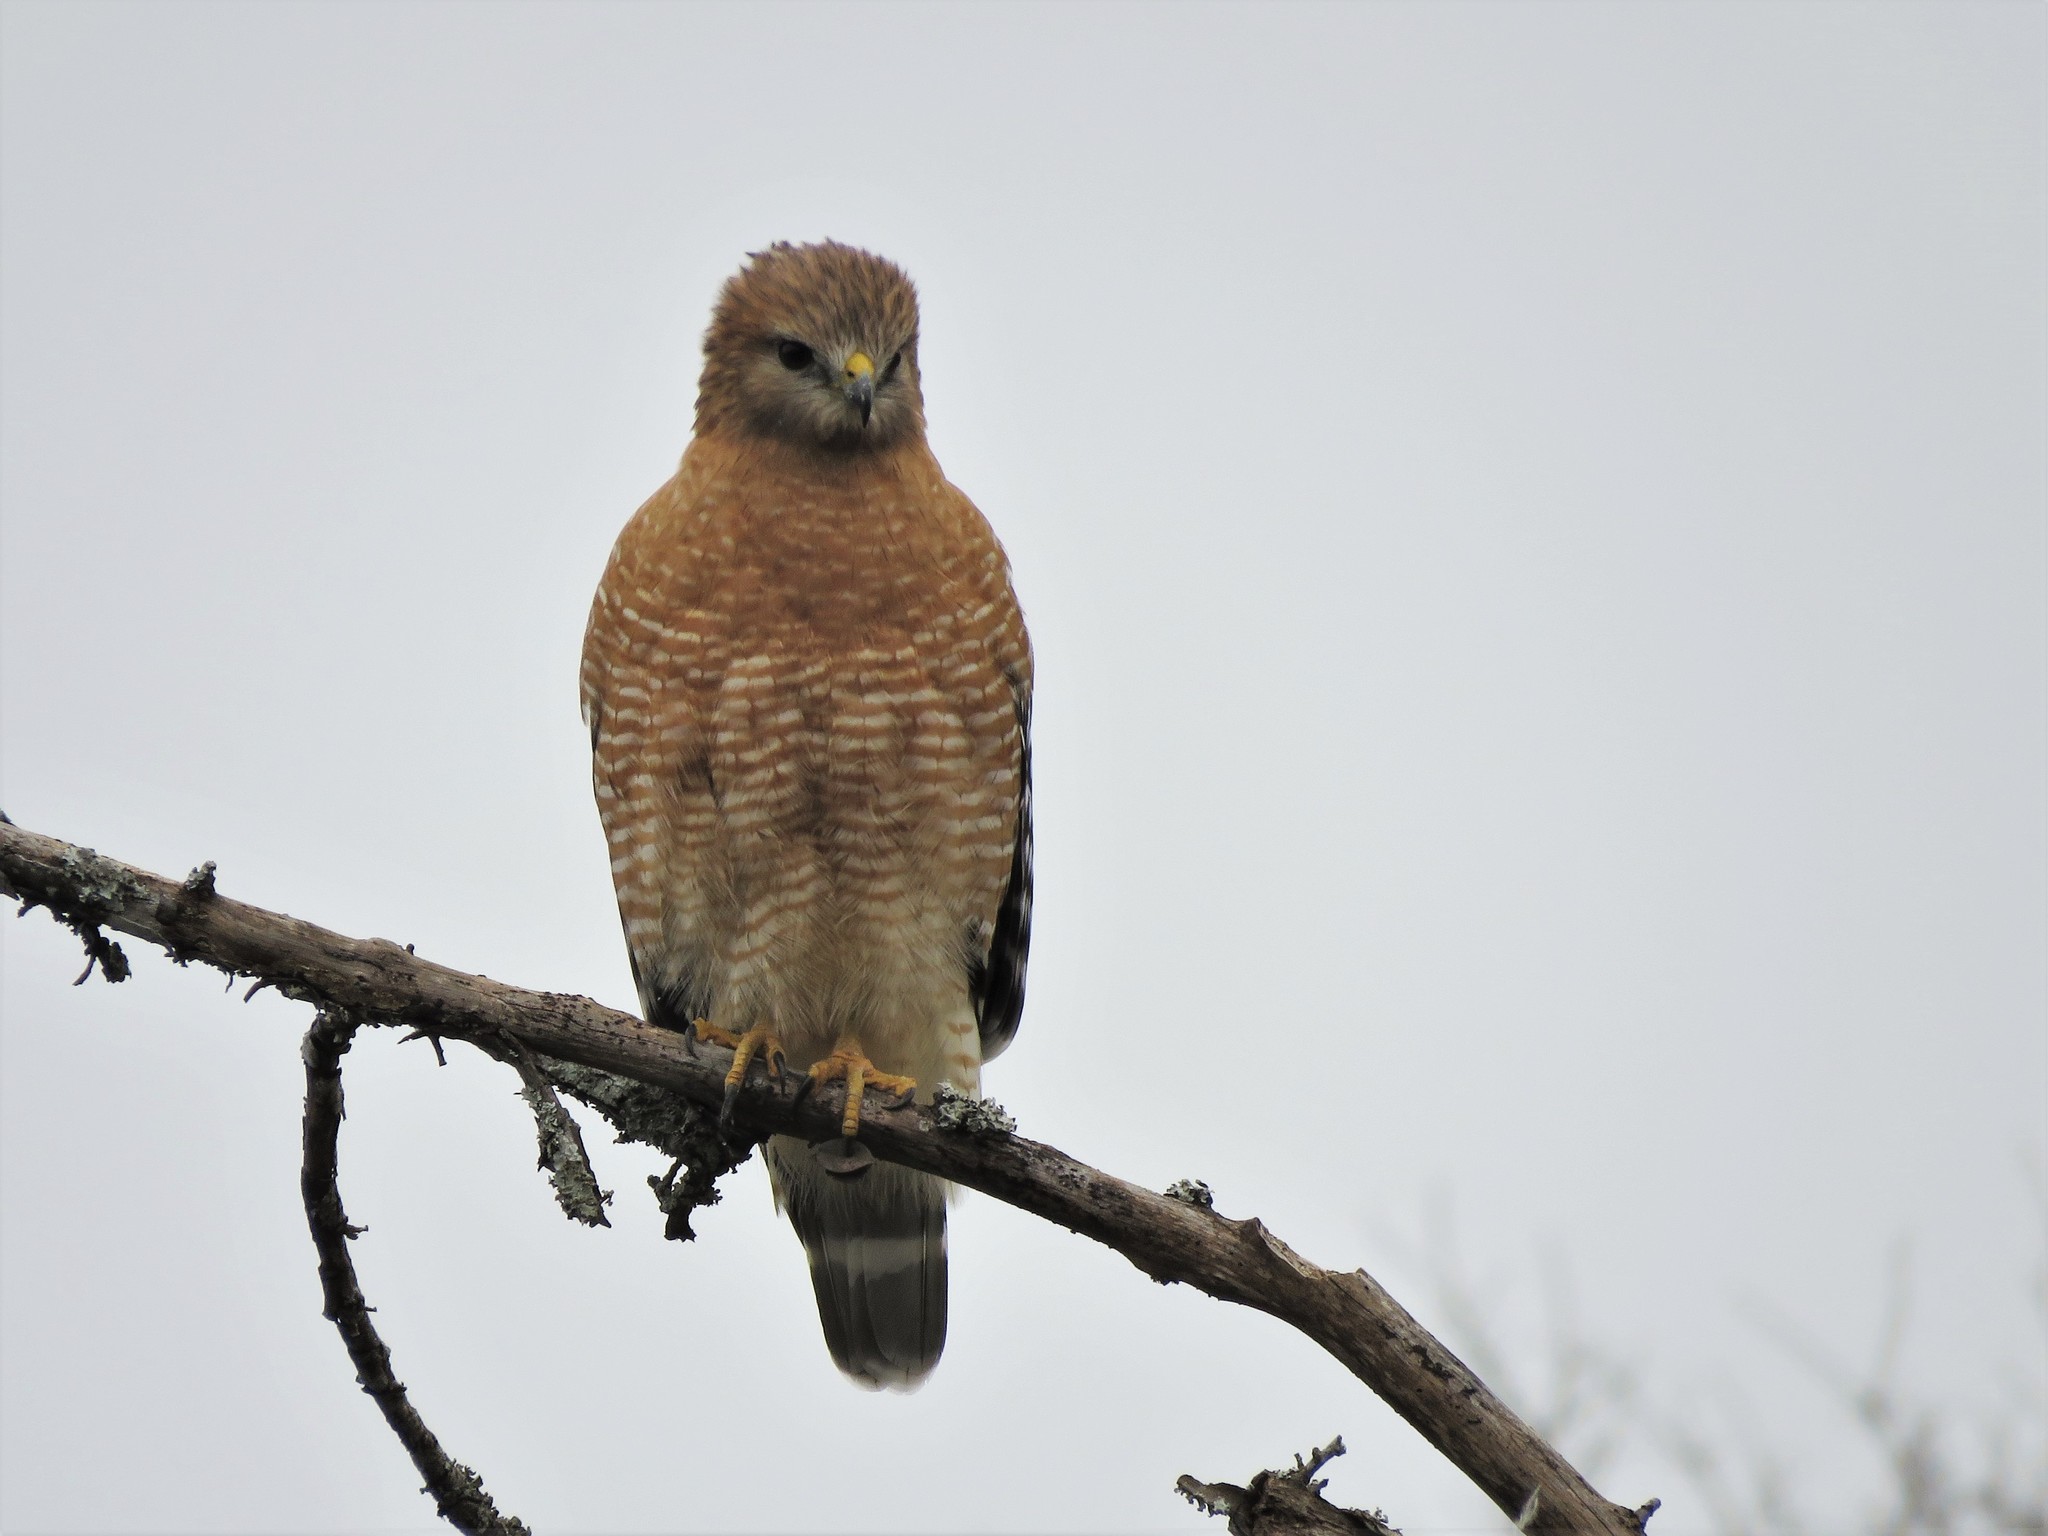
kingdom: Animalia
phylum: Chordata
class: Aves
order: Accipitriformes
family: Accipitridae
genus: Buteo
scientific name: Buteo lineatus
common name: Red-shouldered hawk
